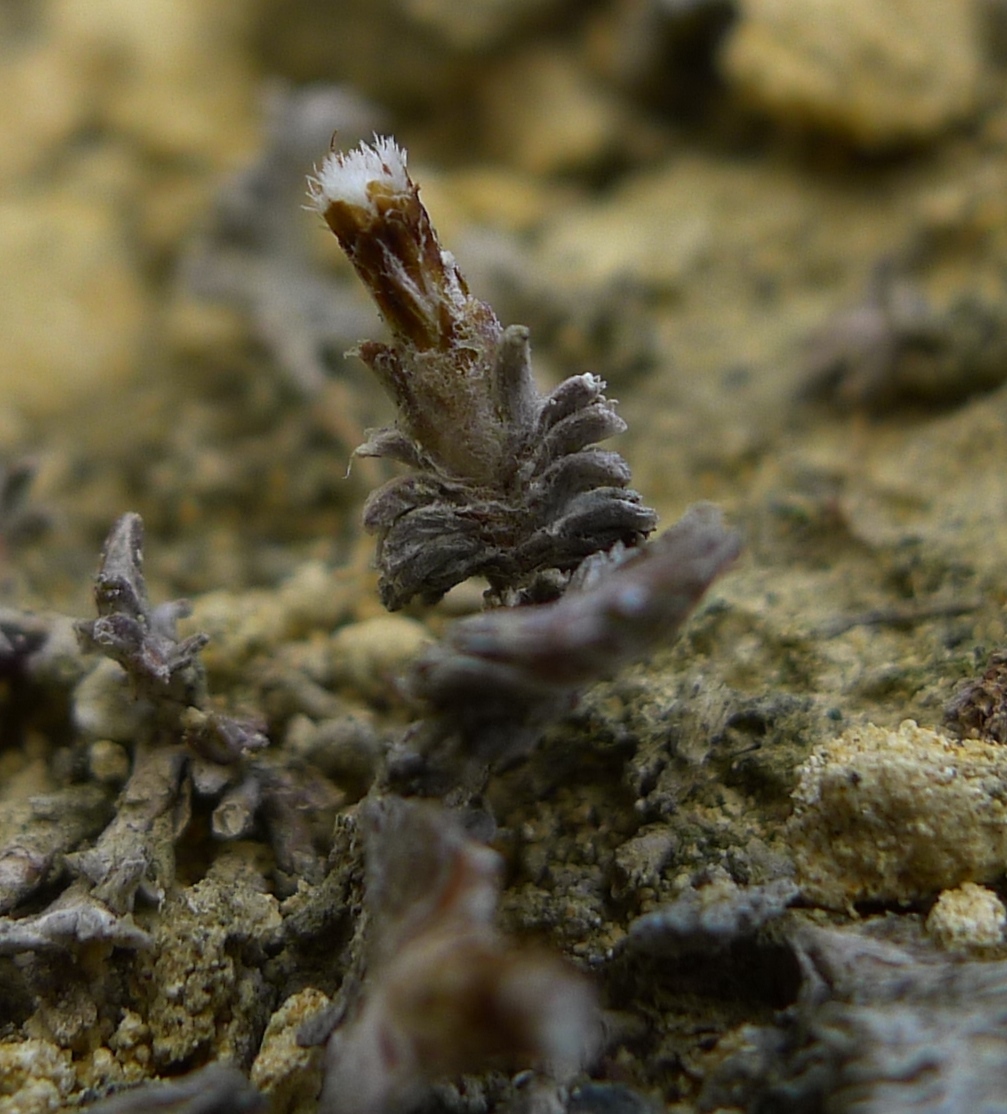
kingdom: Plantae
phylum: Tracheophyta
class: Magnoliopsida
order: Asterales
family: Asteraceae
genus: Raoulia
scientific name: Raoulia monroi
